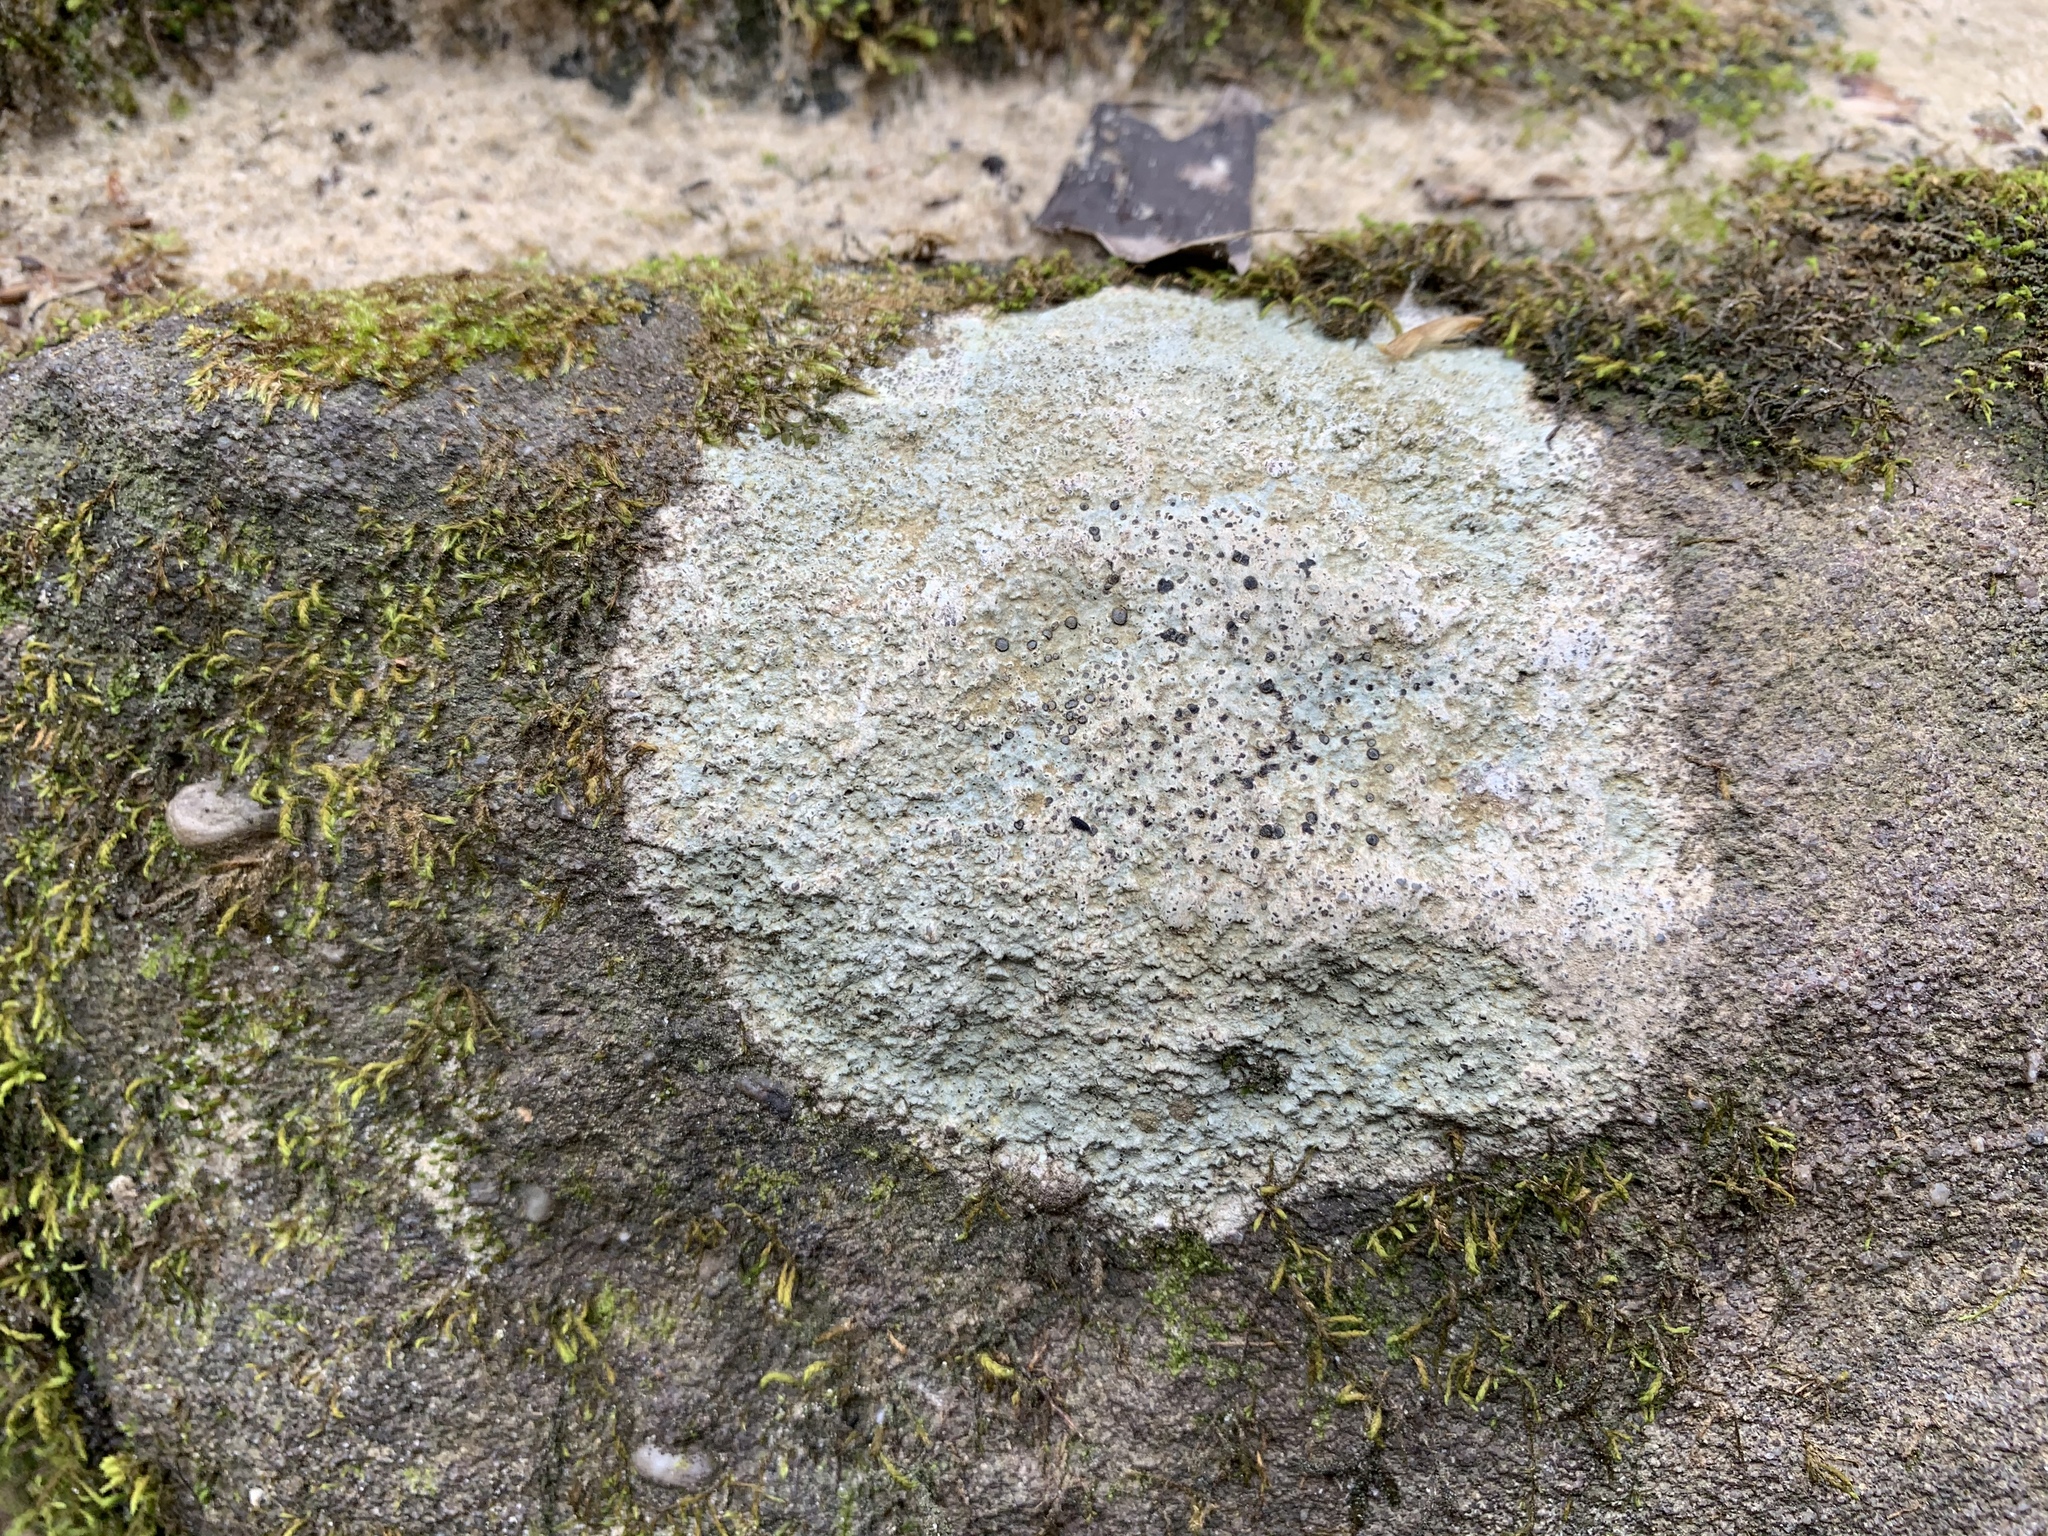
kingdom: Fungi
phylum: Ascomycota
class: Lecanoromycetes
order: Lecideales
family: Lecideaceae
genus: Porpidia
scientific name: Porpidia albocaerulescens
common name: Smokey-eyed boulder lichen
